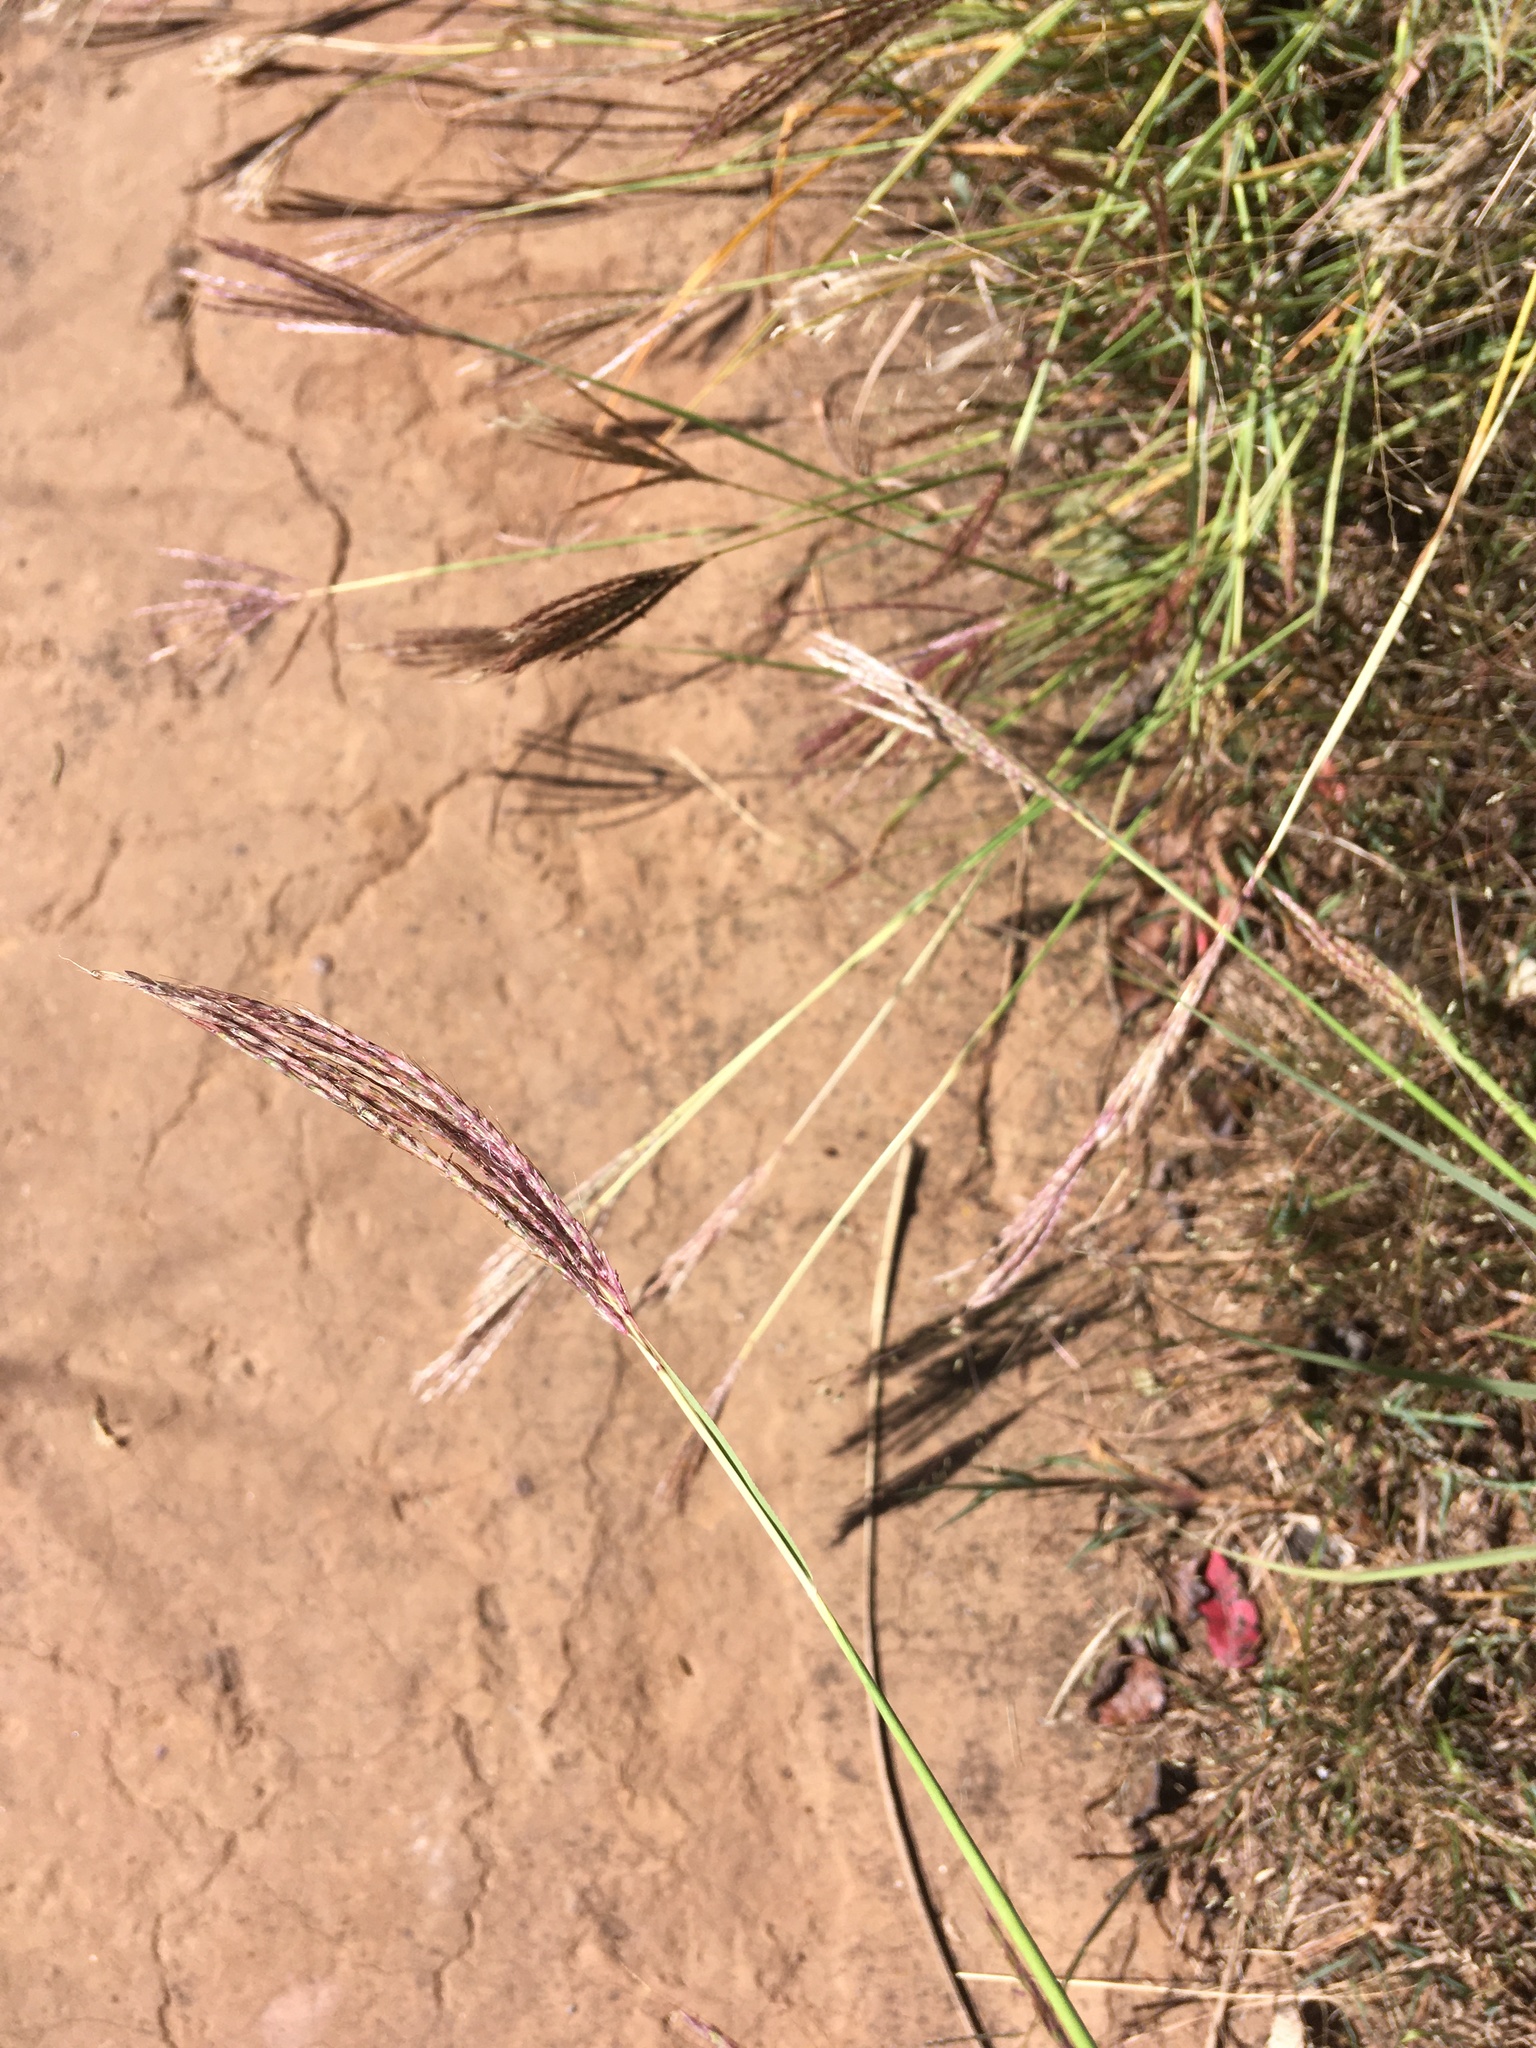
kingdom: Plantae
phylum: Tracheophyta
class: Liliopsida
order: Poales
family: Poaceae
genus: Bothriochloa
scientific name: Bothriochloa ischaemum
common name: Yellow bluestem
